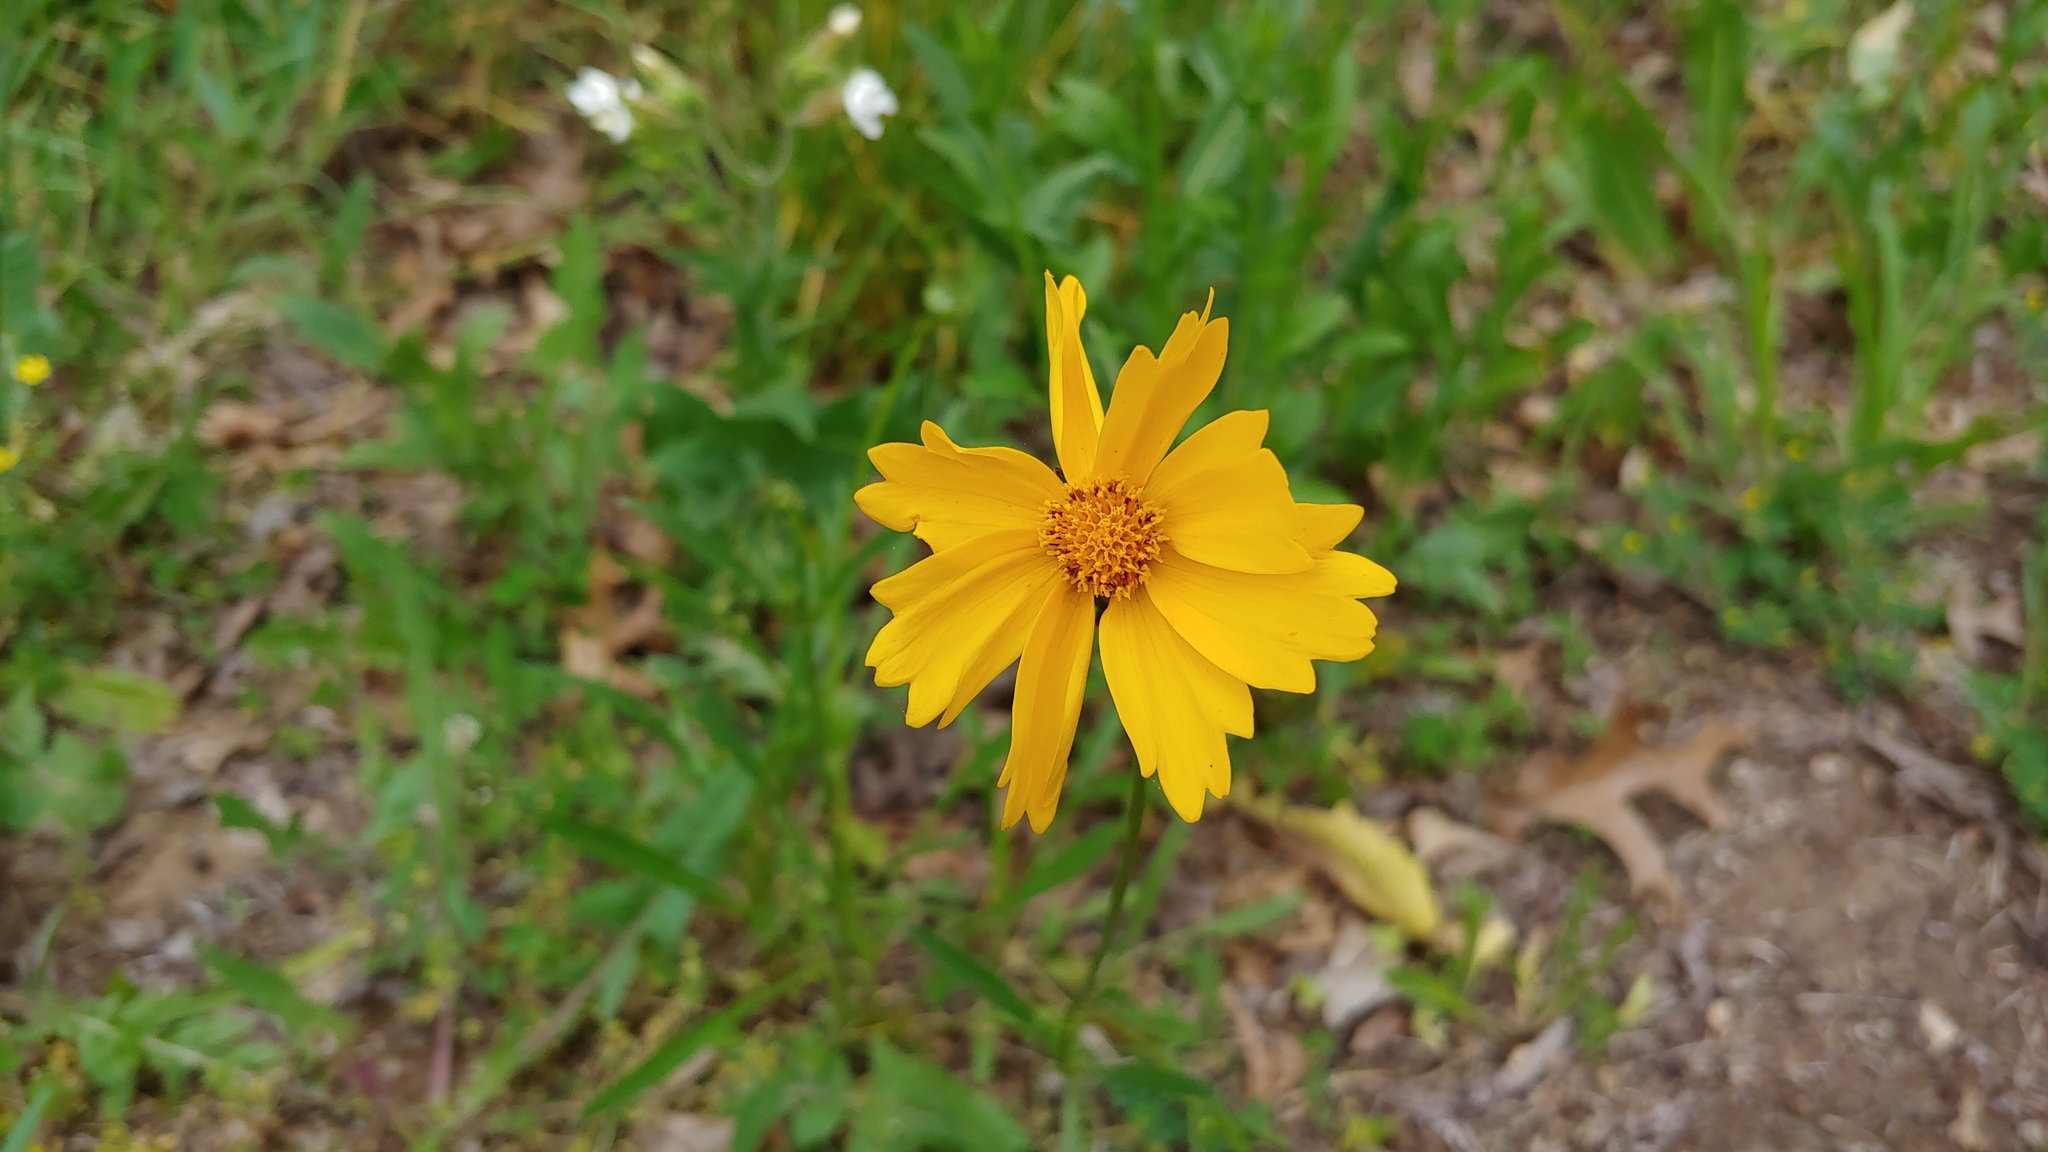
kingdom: Plantae
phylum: Tracheophyta
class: Magnoliopsida
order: Asterales
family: Asteraceae
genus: Coreopsis
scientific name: Coreopsis lanceolata
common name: Garden coreopsis
